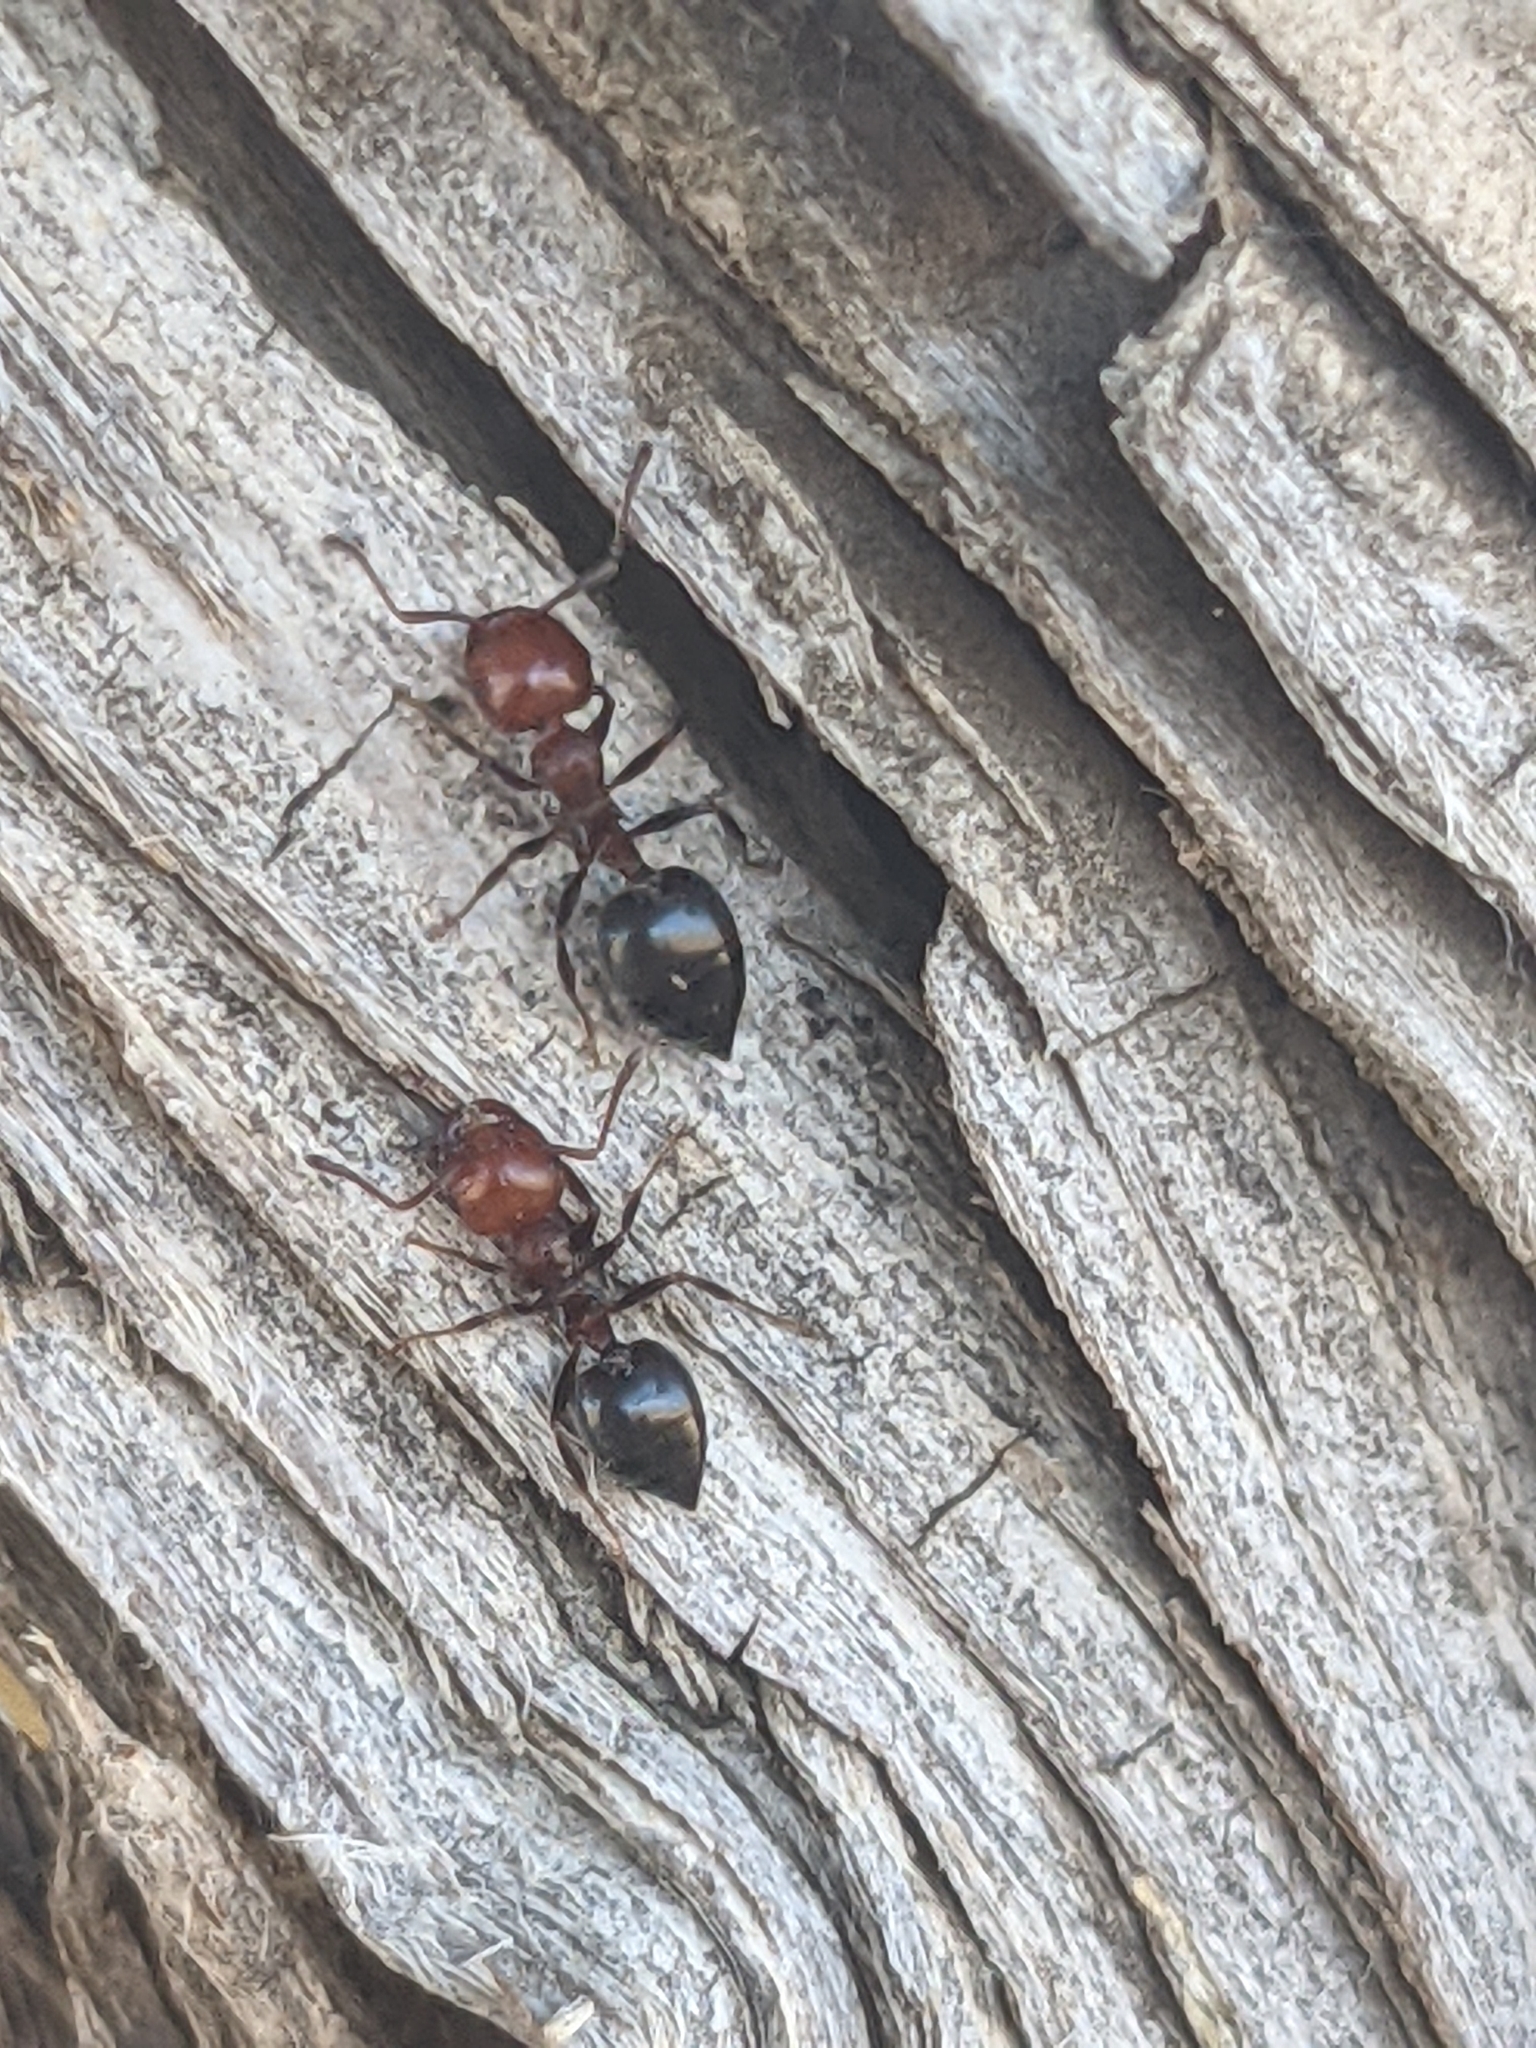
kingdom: Animalia
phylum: Arthropoda
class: Insecta
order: Hymenoptera
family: Formicidae
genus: Crematogaster
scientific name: Crematogaster scutellaris
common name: Fourmi du liège
